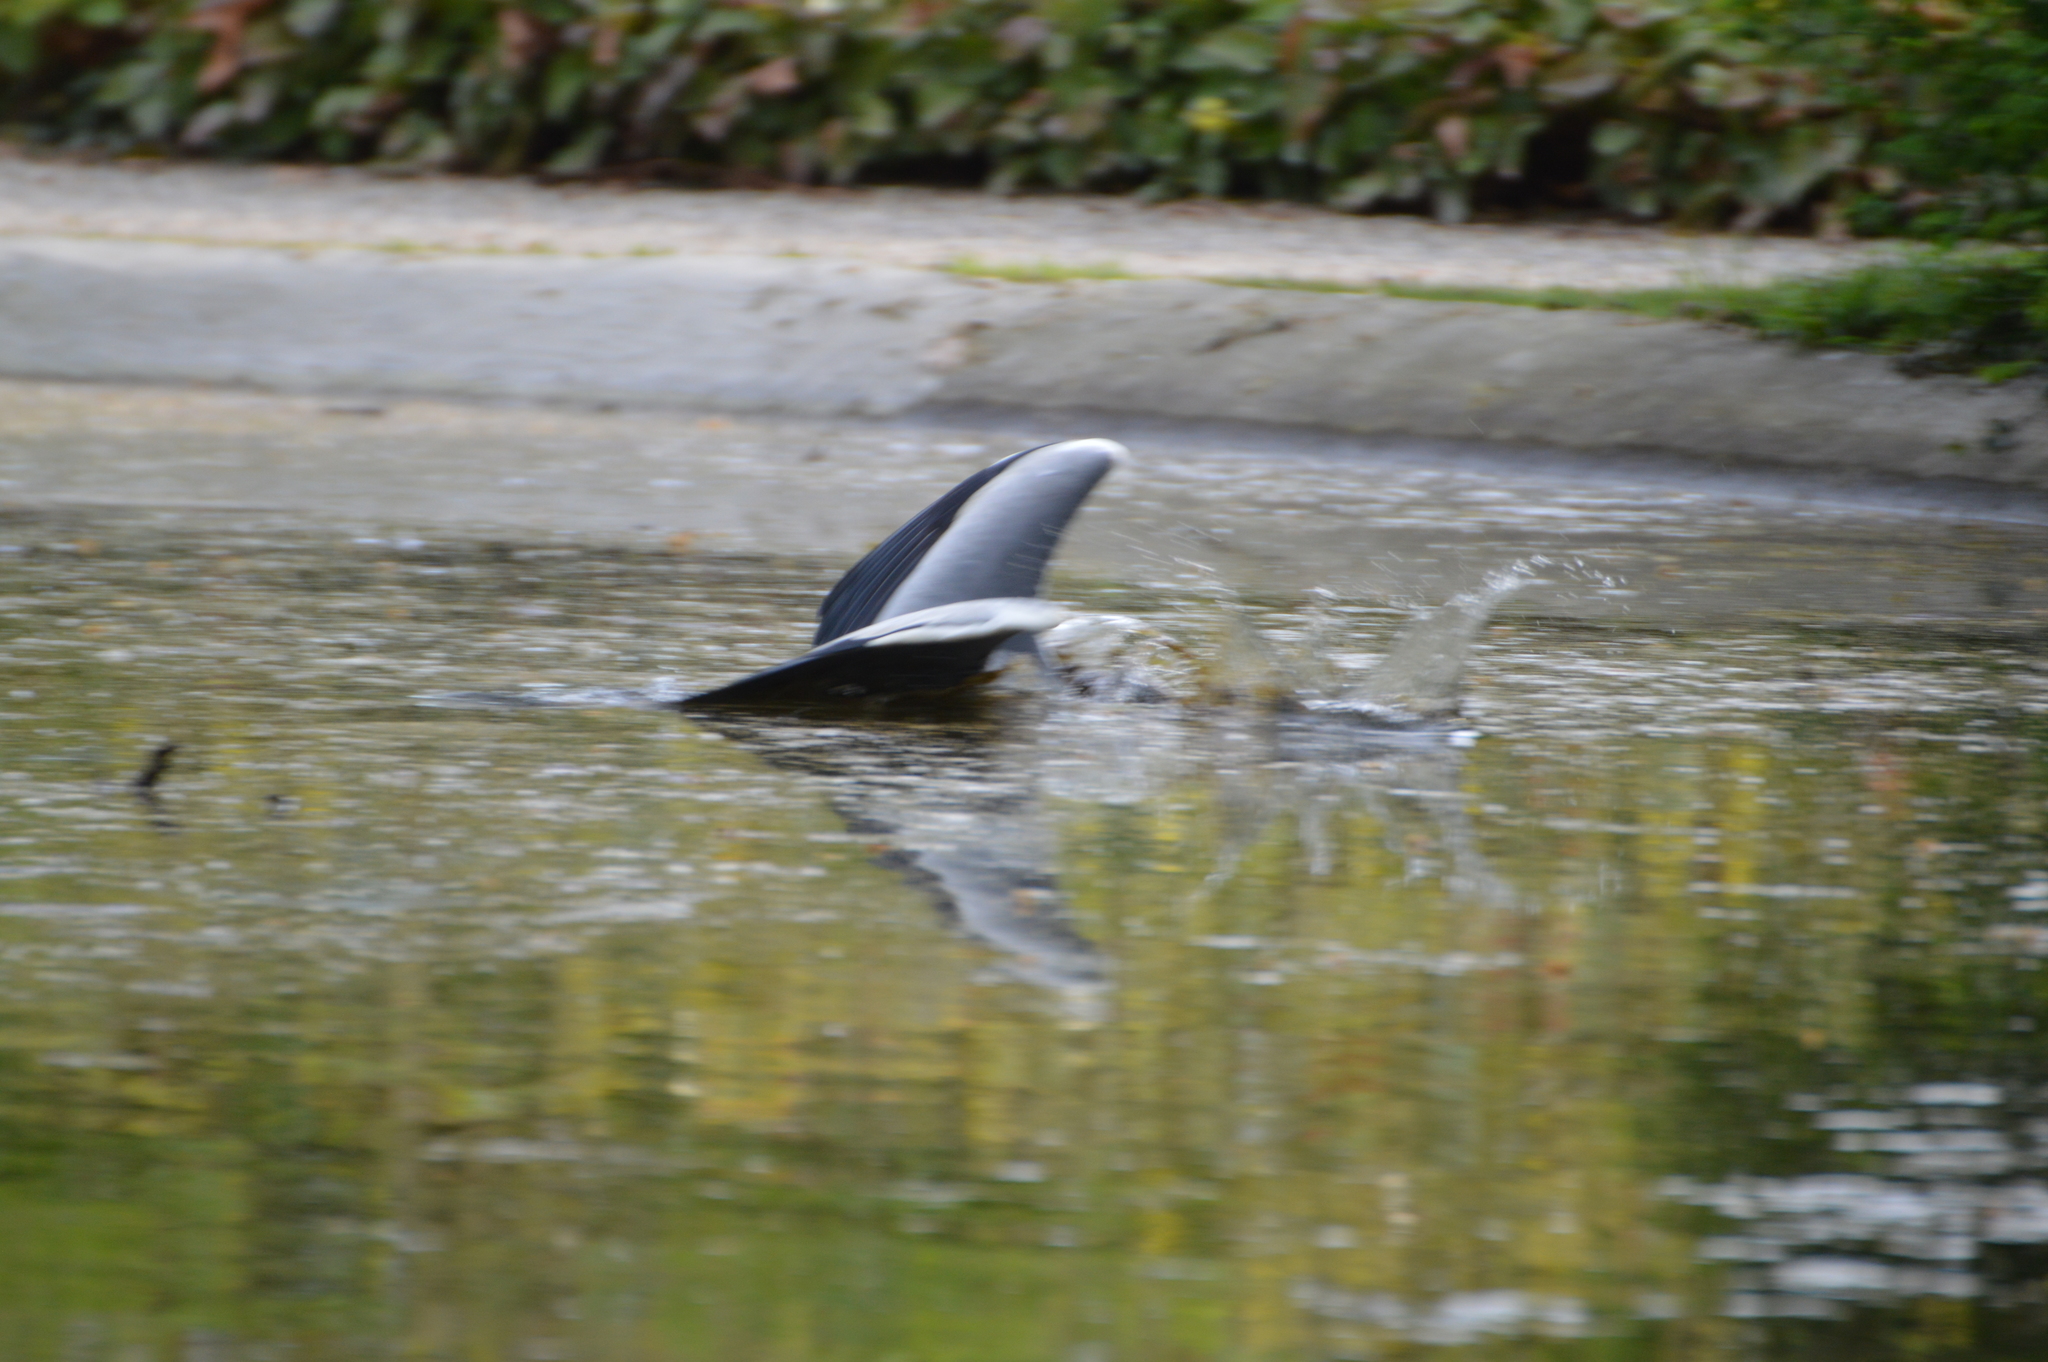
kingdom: Animalia
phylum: Chordata
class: Aves
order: Pelecaniformes
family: Ardeidae
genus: Ardea
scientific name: Ardea cinerea
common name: Grey heron
